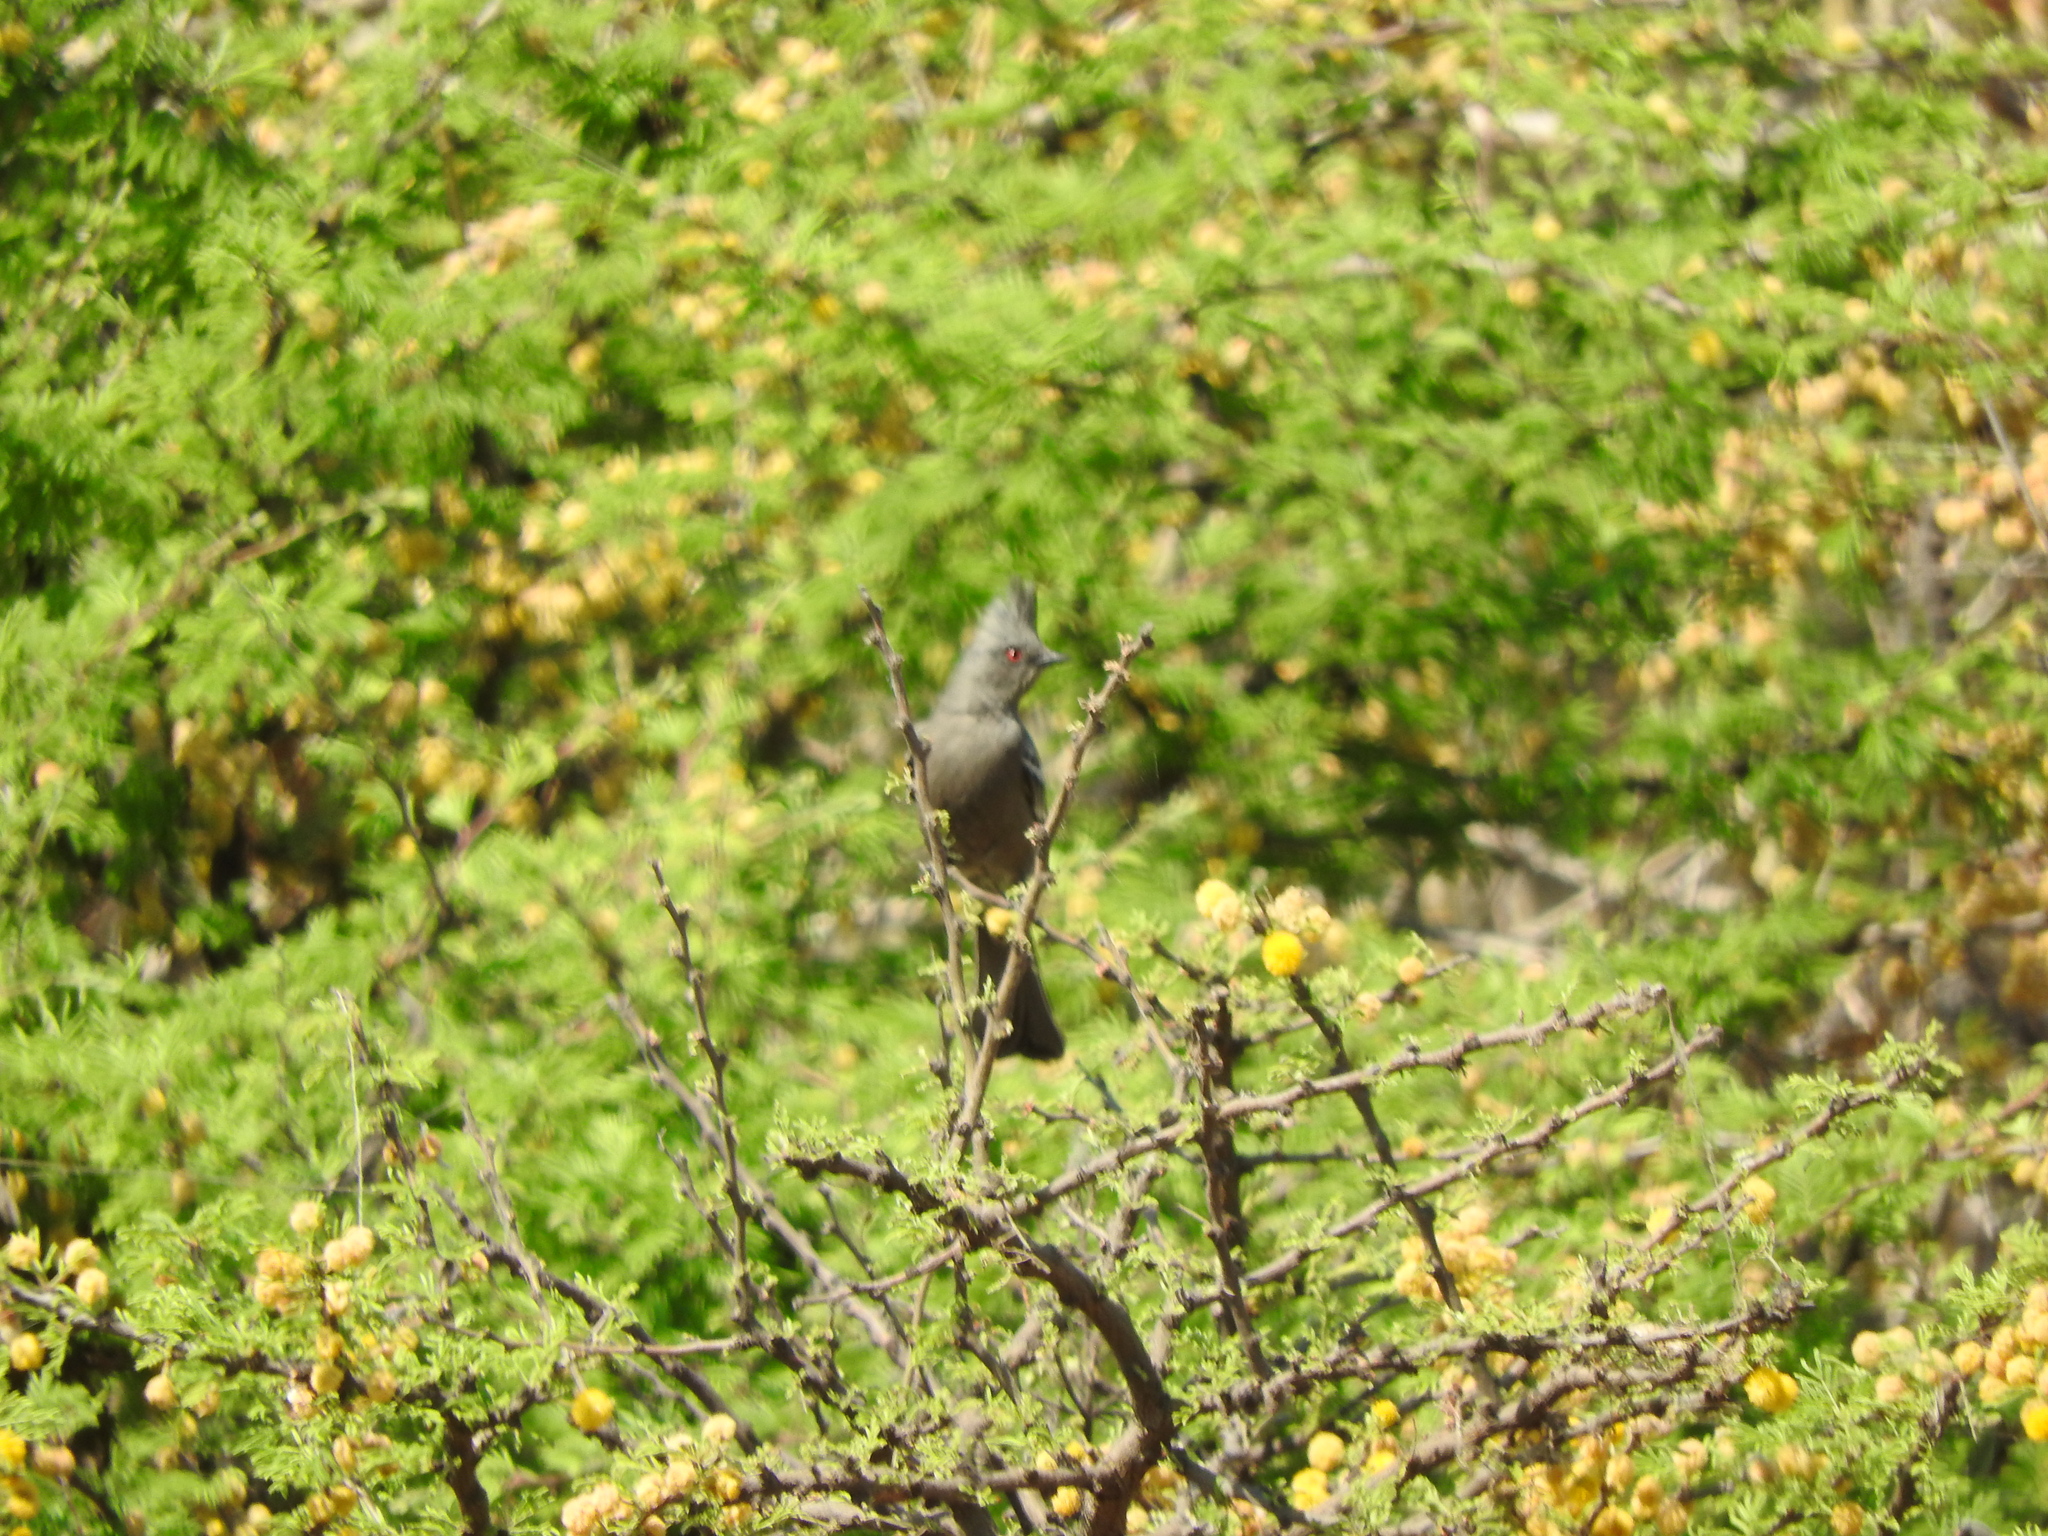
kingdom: Animalia
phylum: Chordata
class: Aves
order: Passeriformes
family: Ptilogonatidae
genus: Phainopepla
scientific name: Phainopepla nitens
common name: Phainopepla
